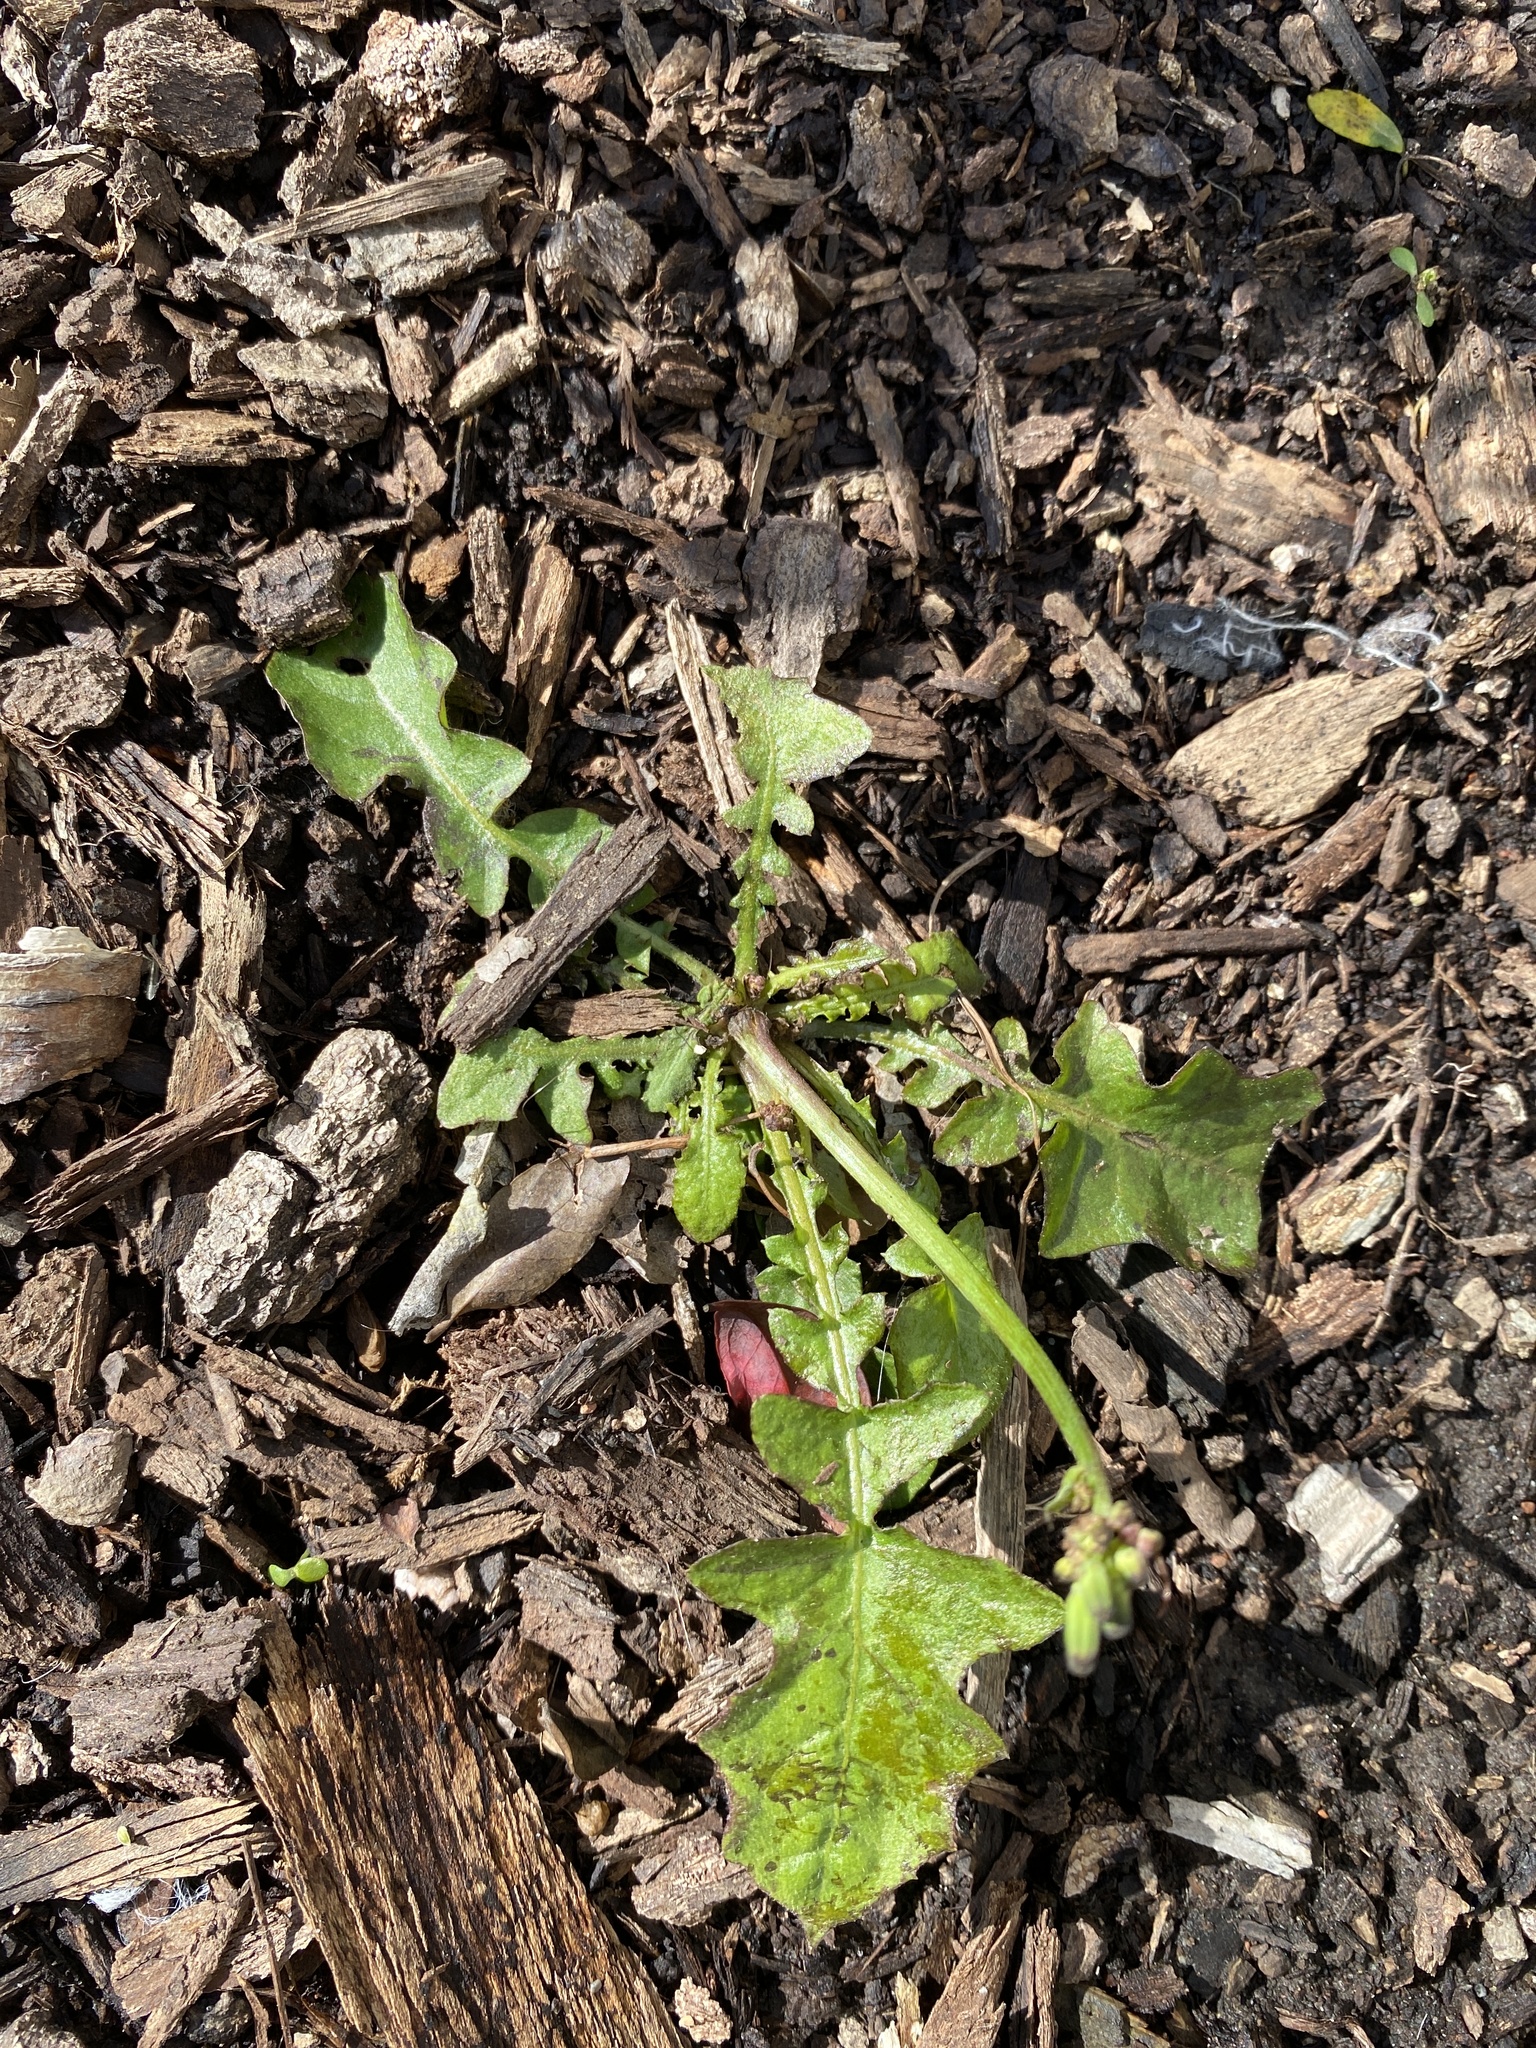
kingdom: Plantae
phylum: Tracheophyta
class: Magnoliopsida
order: Asterales
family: Asteraceae
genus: Youngia
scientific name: Youngia japonica
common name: Oriental false hawksbeard
